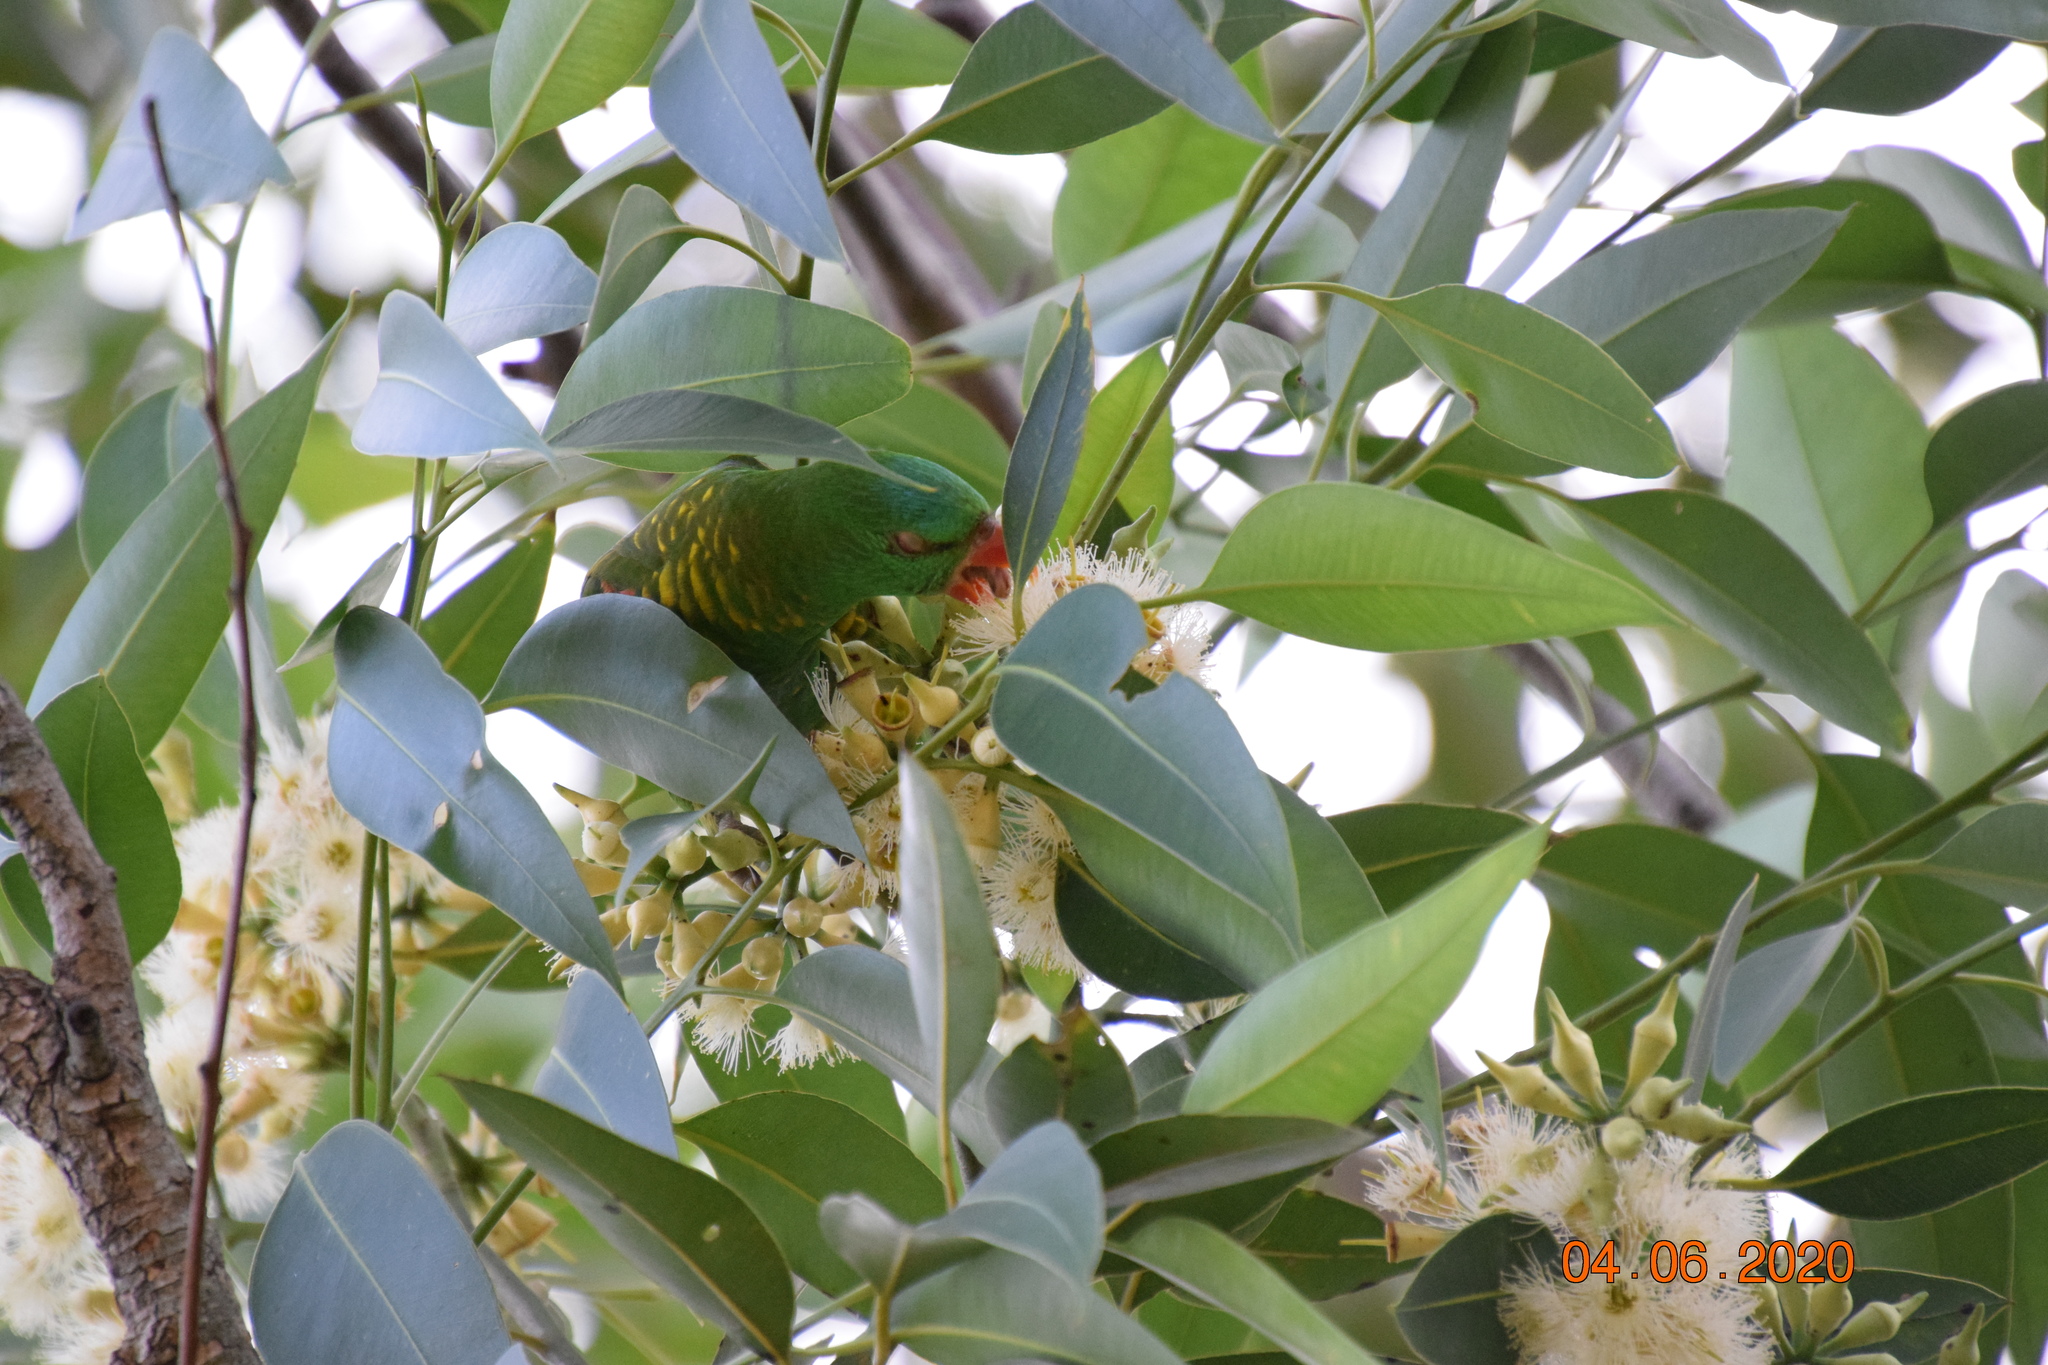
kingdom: Animalia
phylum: Chordata
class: Aves
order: Psittaciformes
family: Psittacidae
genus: Trichoglossus
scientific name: Trichoglossus chlorolepidotus
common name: Scaly-breasted lorikeet
